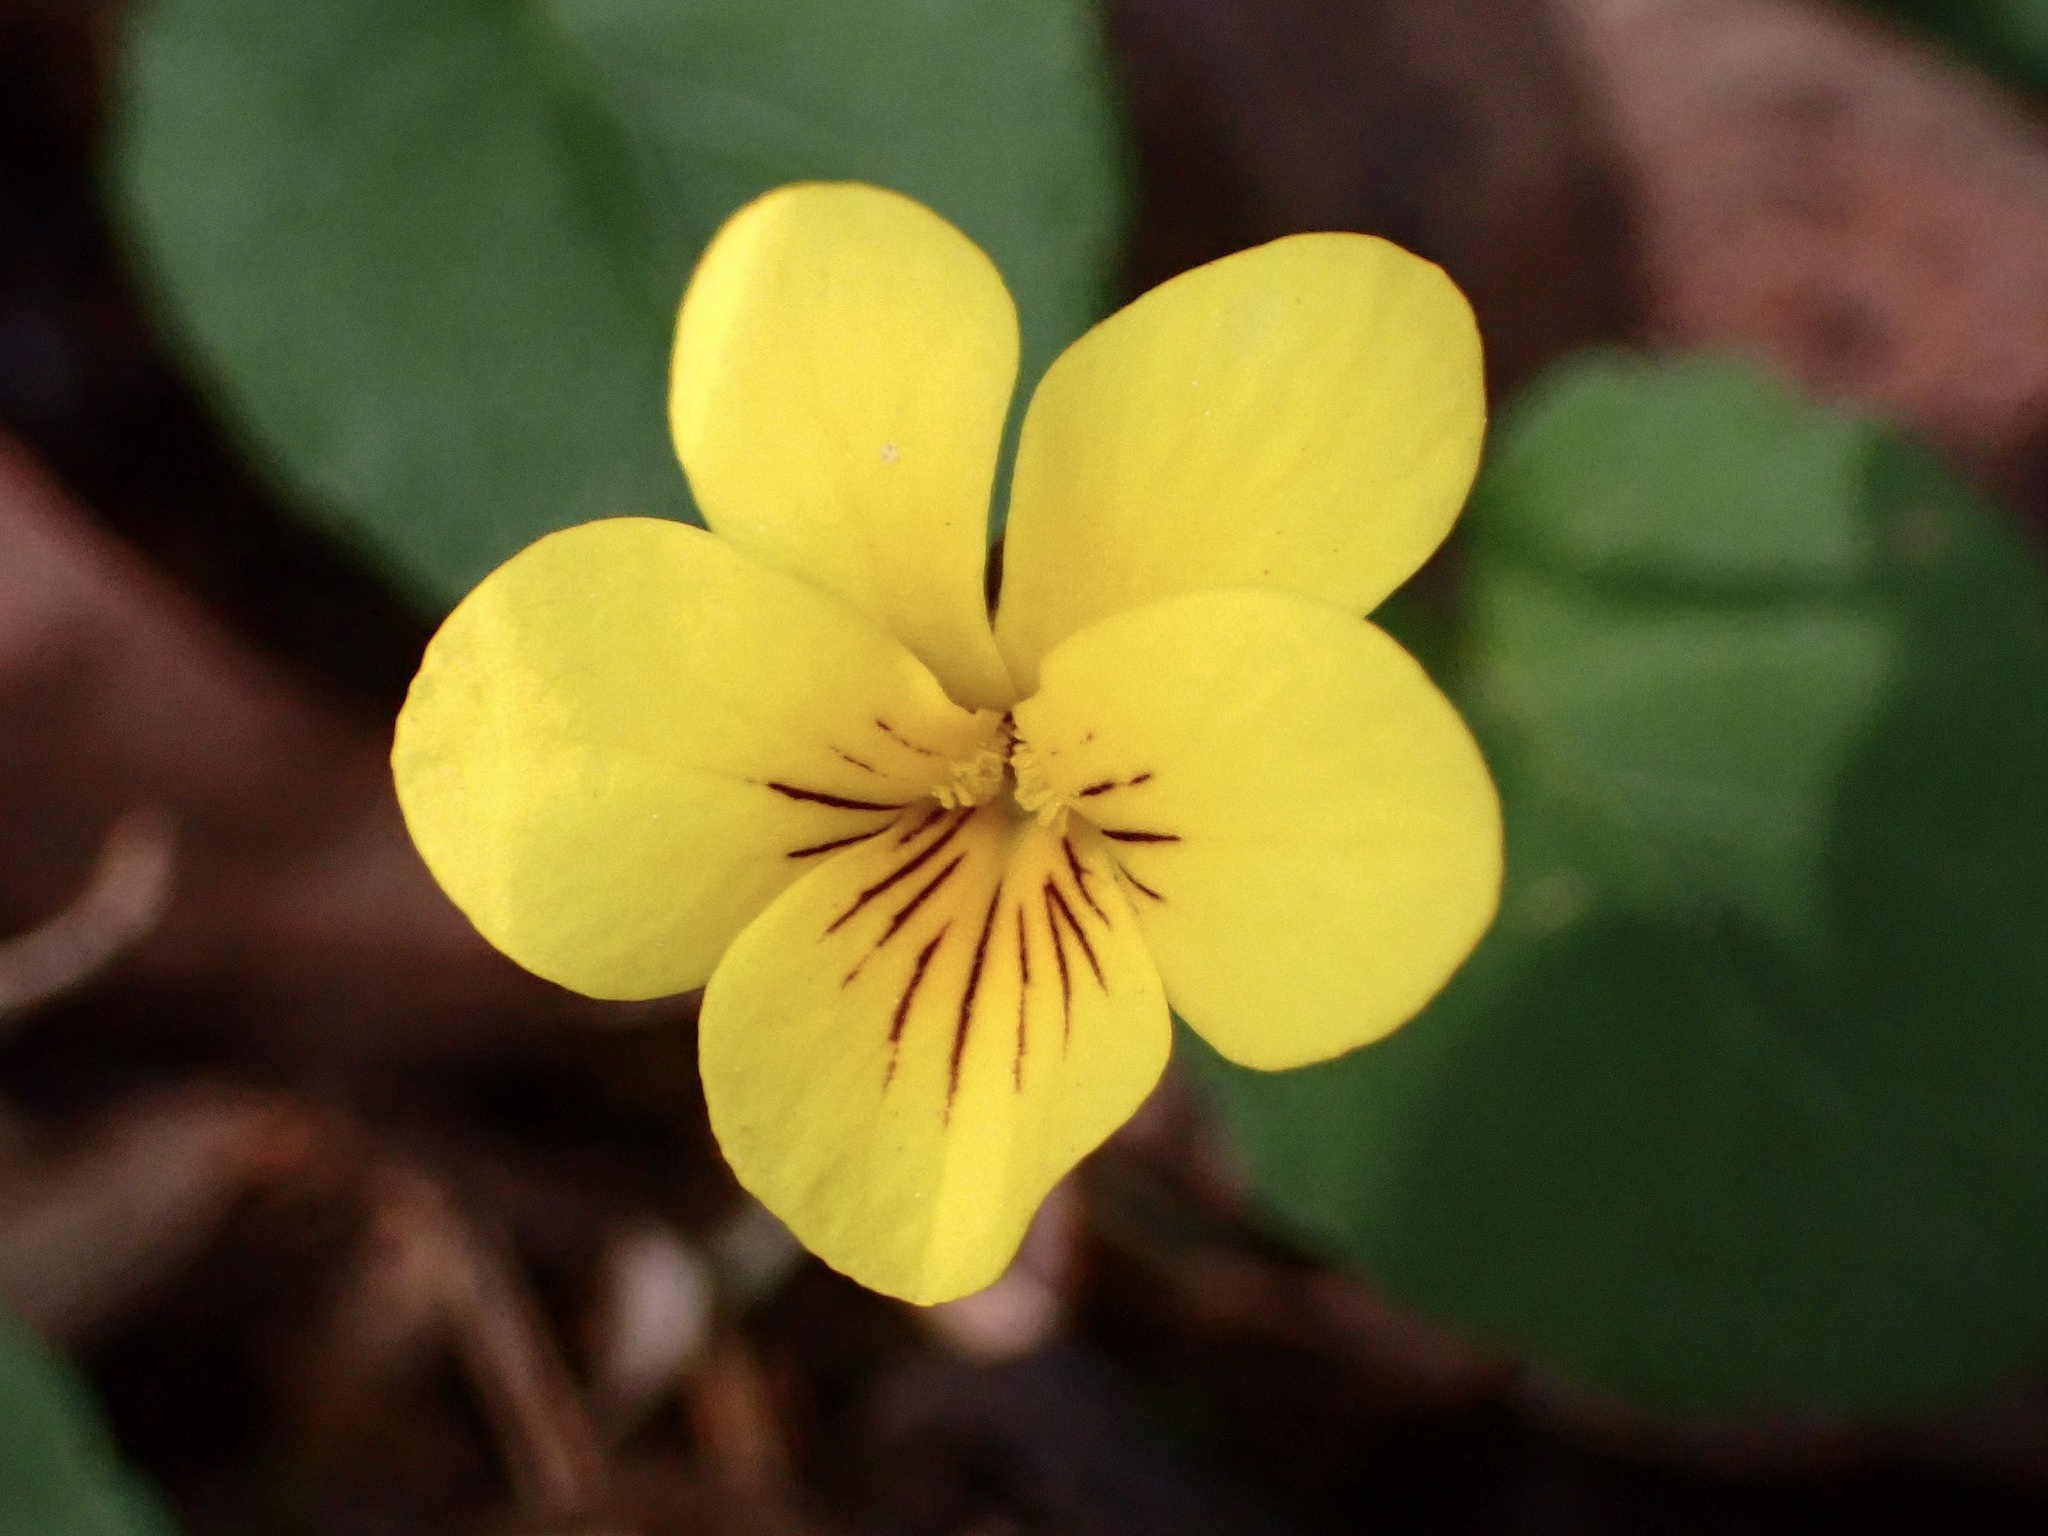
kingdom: Plantae
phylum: Tracheophyta
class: Magnoliopsida
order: Malpighiales
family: Violaceae
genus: Viola
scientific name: Viola sempervirens
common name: Evergreen violet
